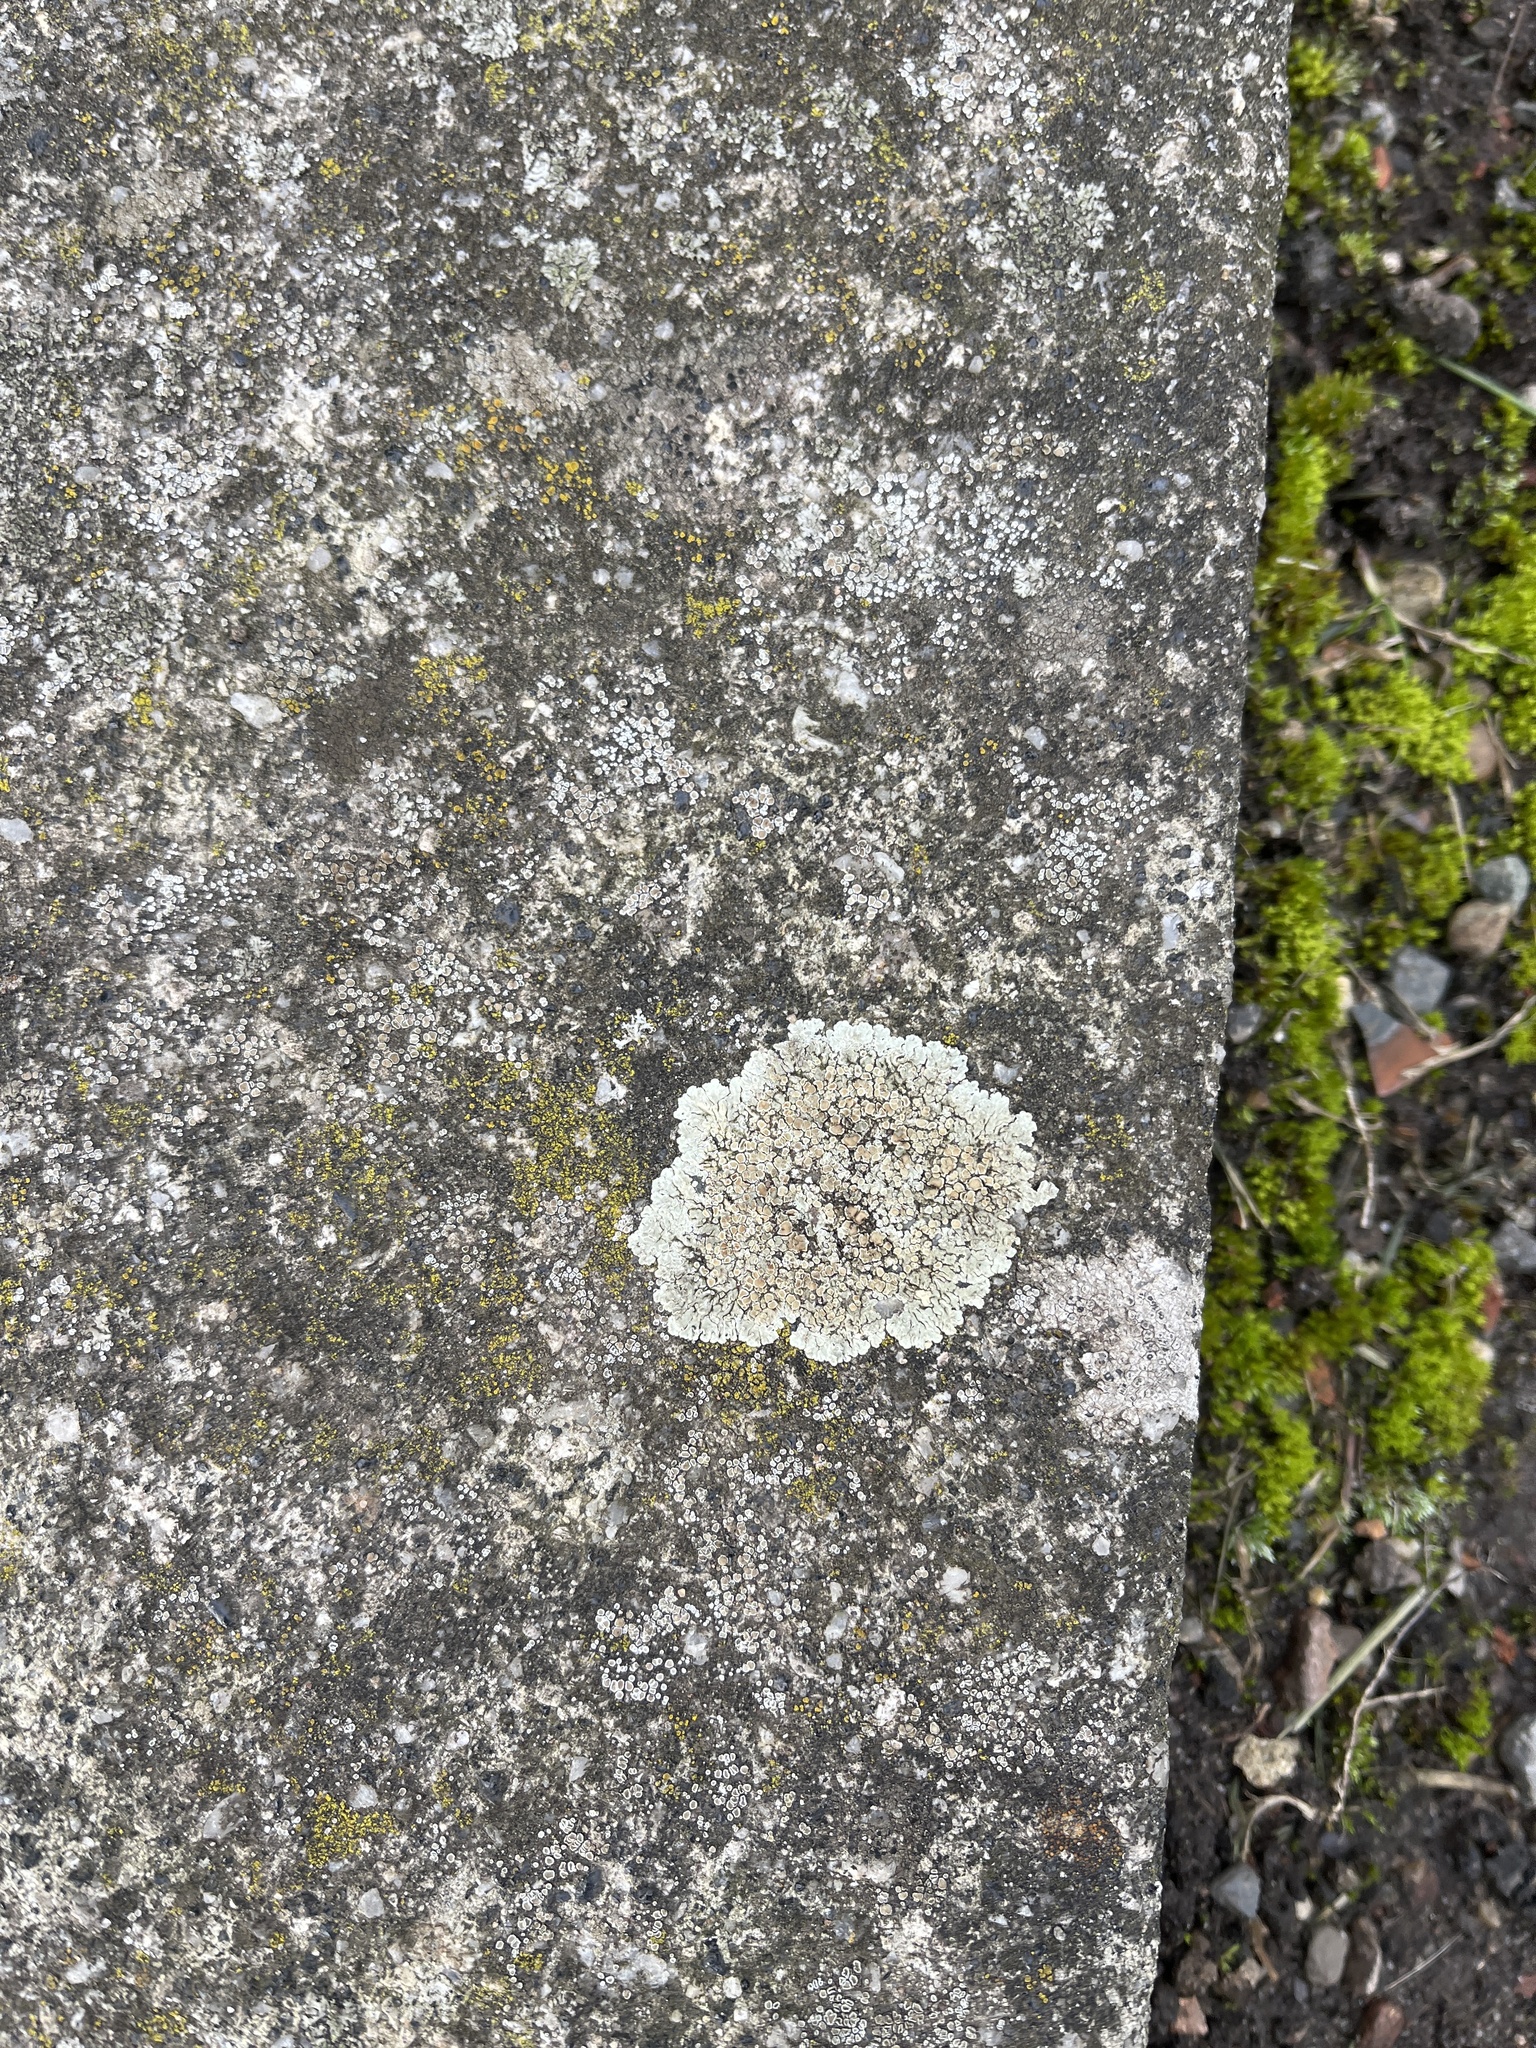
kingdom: Fungi
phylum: Ascomycota
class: Lecanoromycetes
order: Lecanorales
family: Lecanoraceae
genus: Protoparmeliopsis
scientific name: Protoparmeliopsis muralis
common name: Stonewall rim lichen
